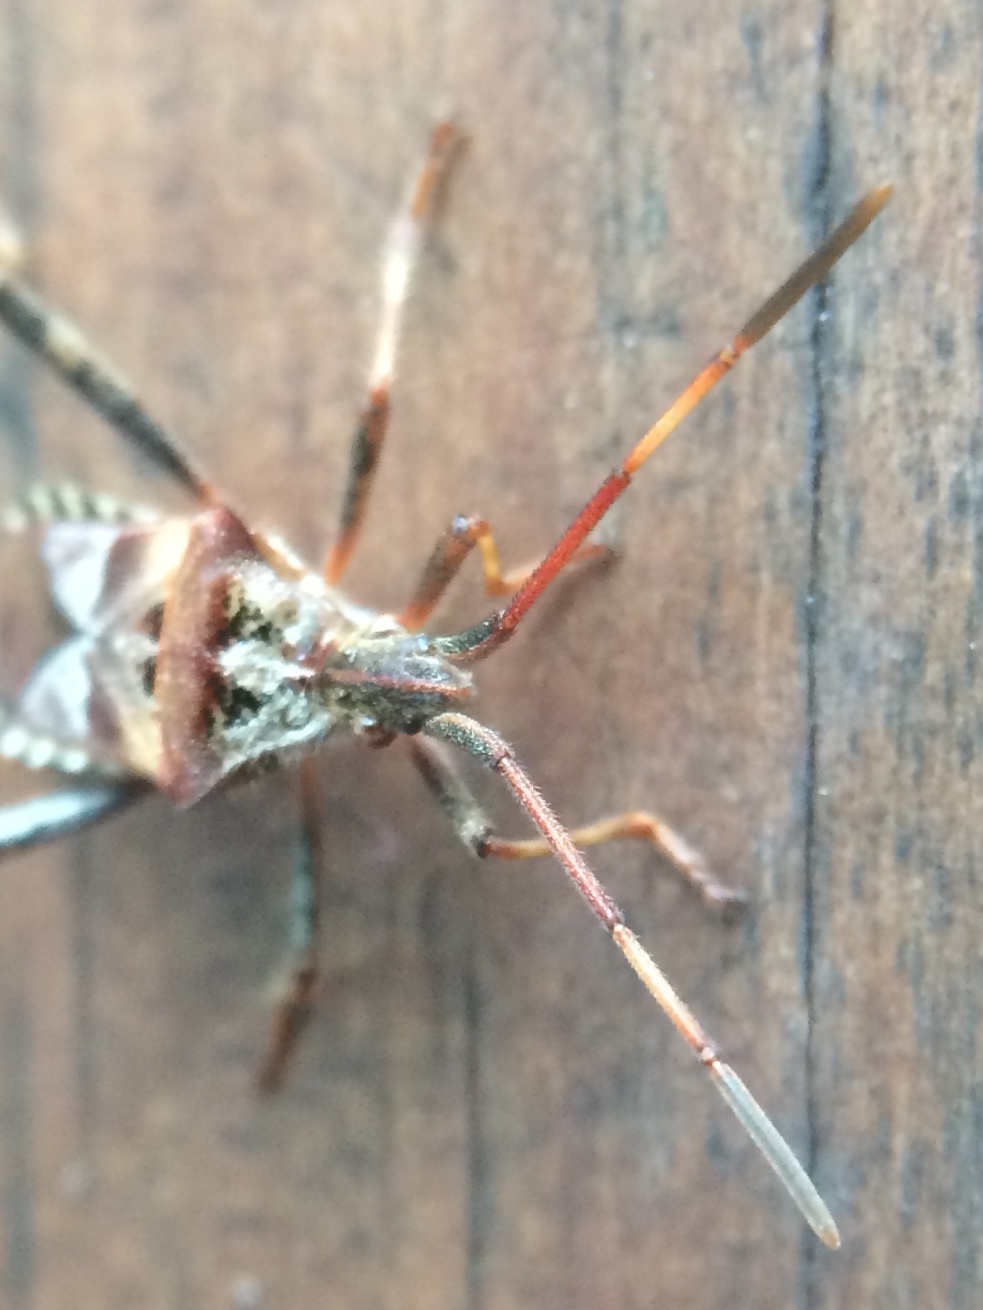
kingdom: Animalia
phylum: Arthropoda
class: Insecta
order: Hemiptera
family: Coreidae
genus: Leptoglossus
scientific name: Leptoglossus occidentalis
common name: Western conifer-seed bug
